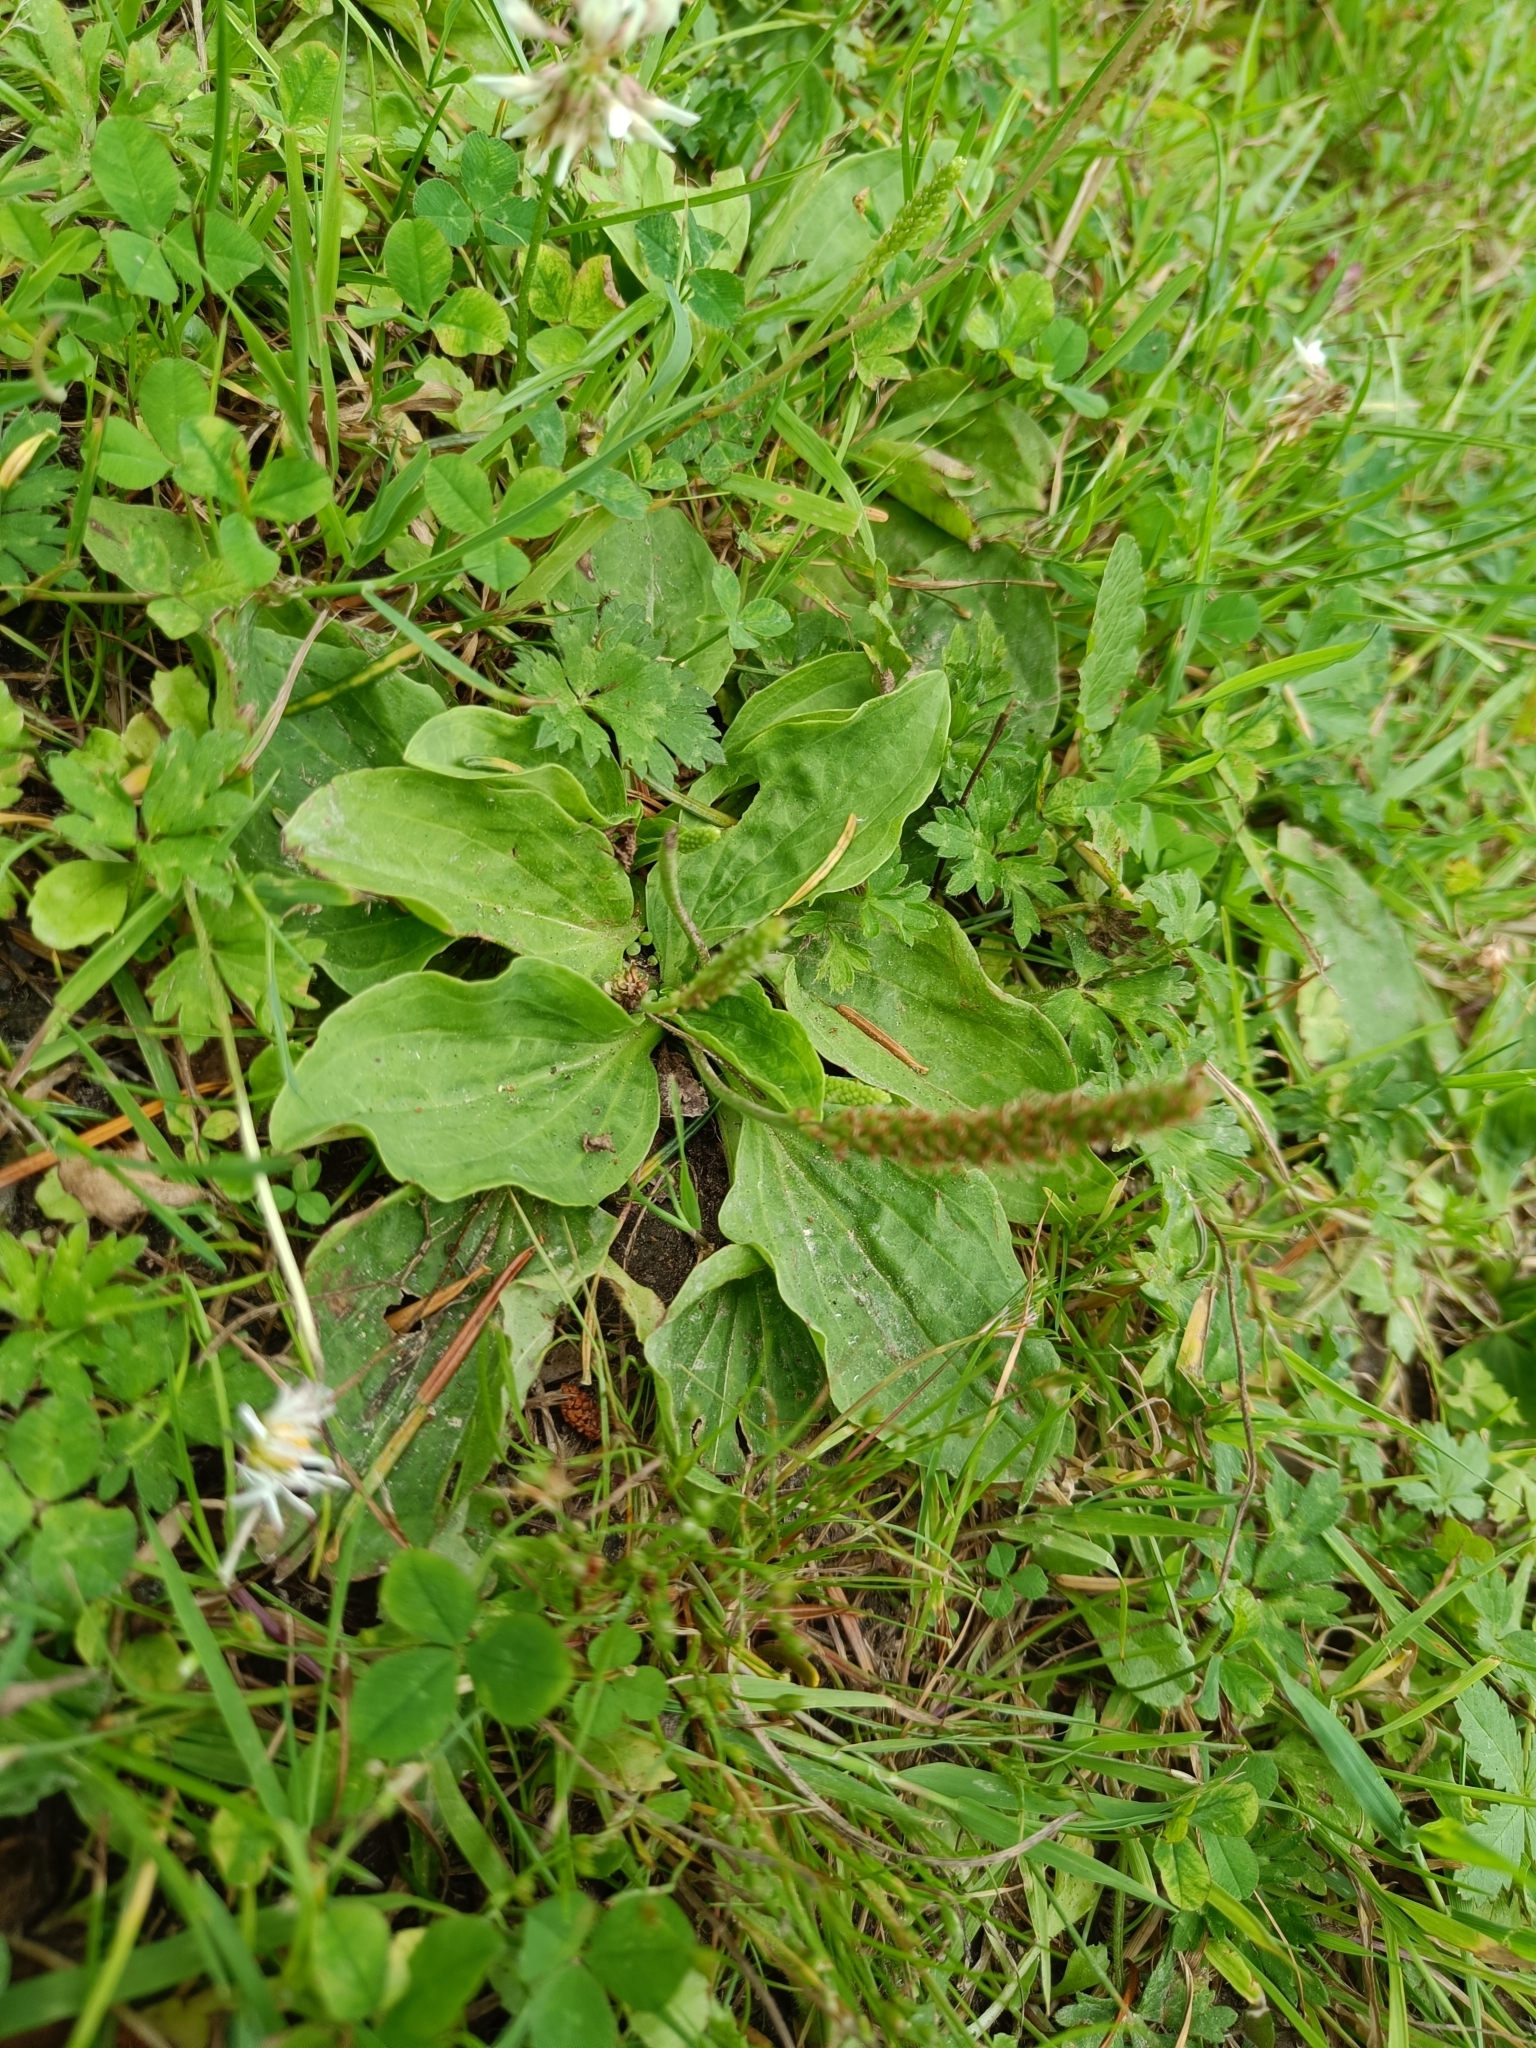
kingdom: Plantae
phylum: Tracheophyta
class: Magnoliopsida
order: Lamiales
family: Plantaginaceae
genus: Plantago
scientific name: Plantago major
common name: Common plantain
